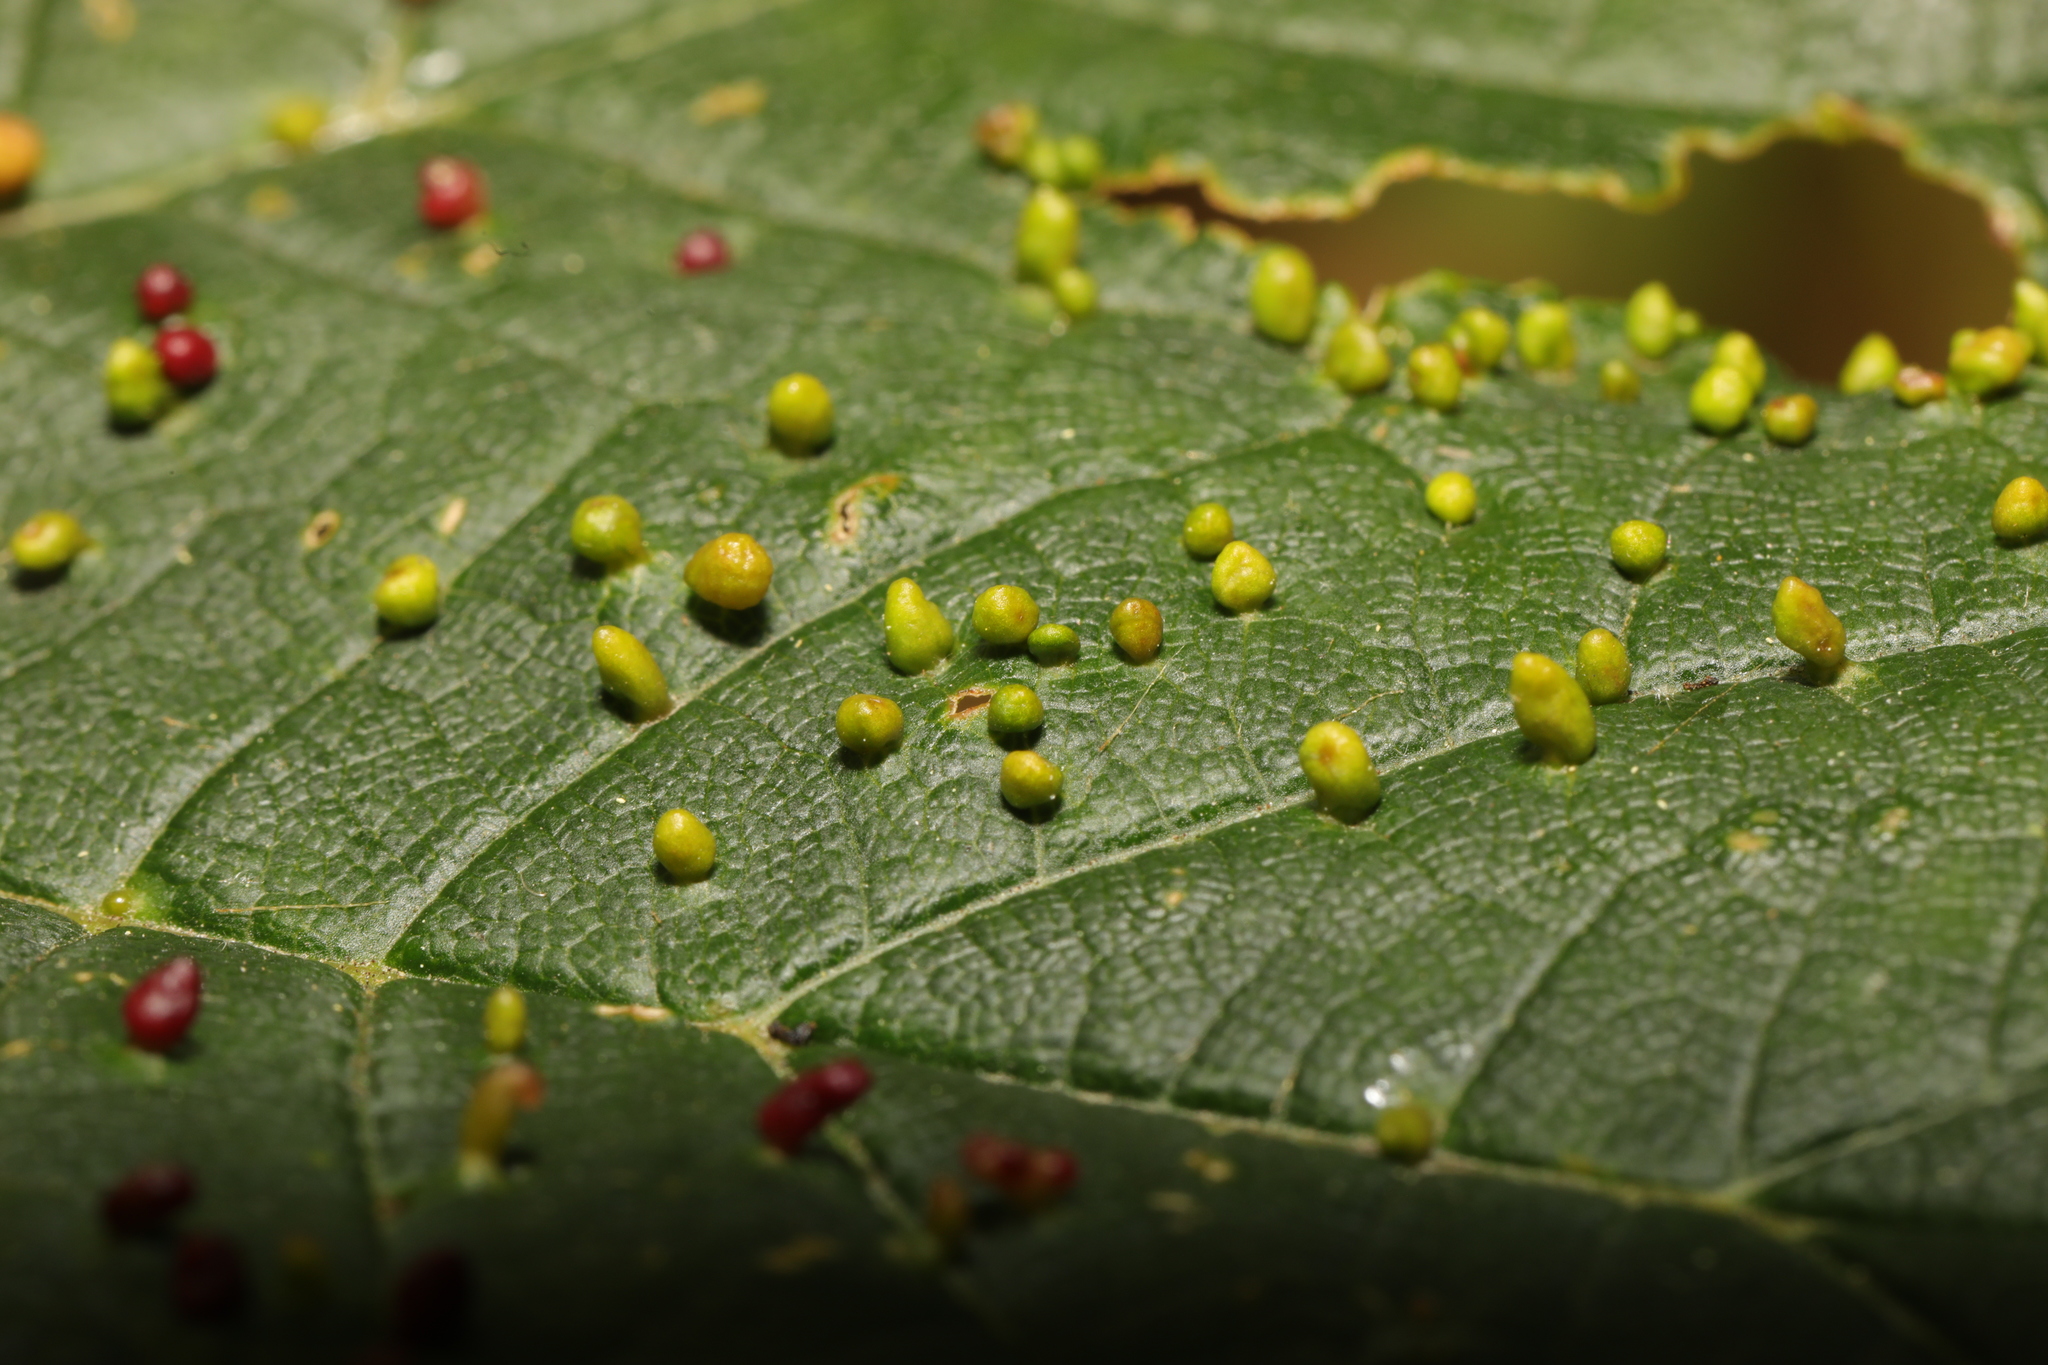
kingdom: Animalia
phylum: Arthropoda
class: Arachnida
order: Trombidiformes
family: Eriophyidae
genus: Aceria
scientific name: Aceria cephaloneus
